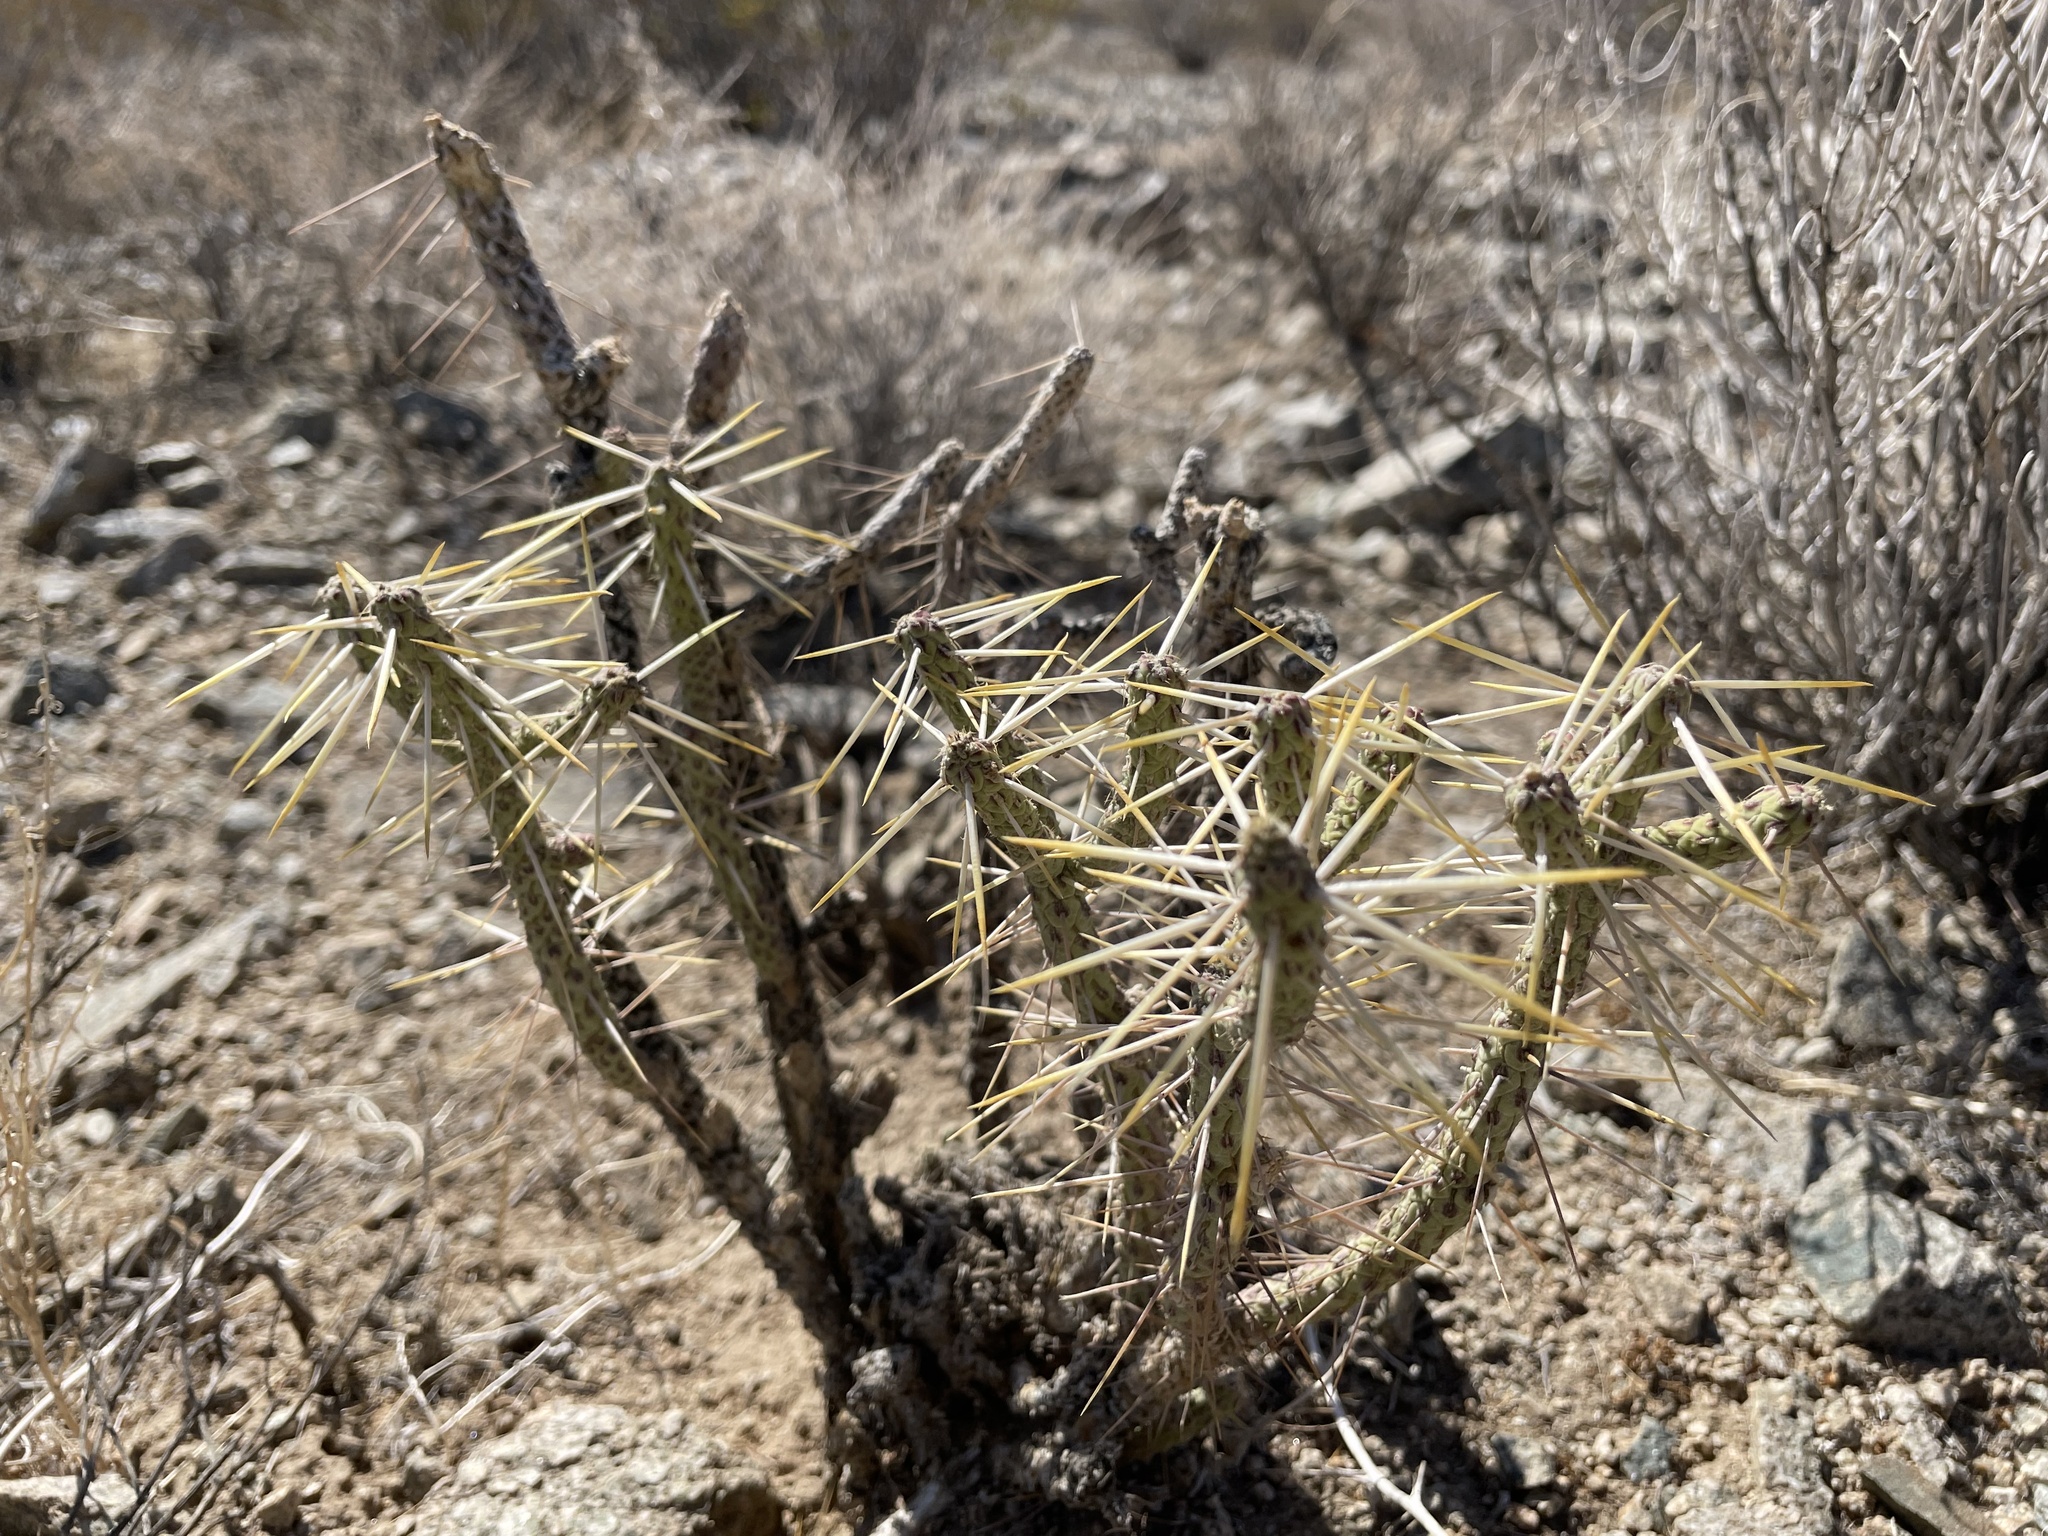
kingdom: Plantae
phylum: Tracheophyta
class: Magnoliopsida
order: Caryophyllales
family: Cactaceae
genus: Cylindropuntia
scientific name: Cylindropuntia ramosissima
